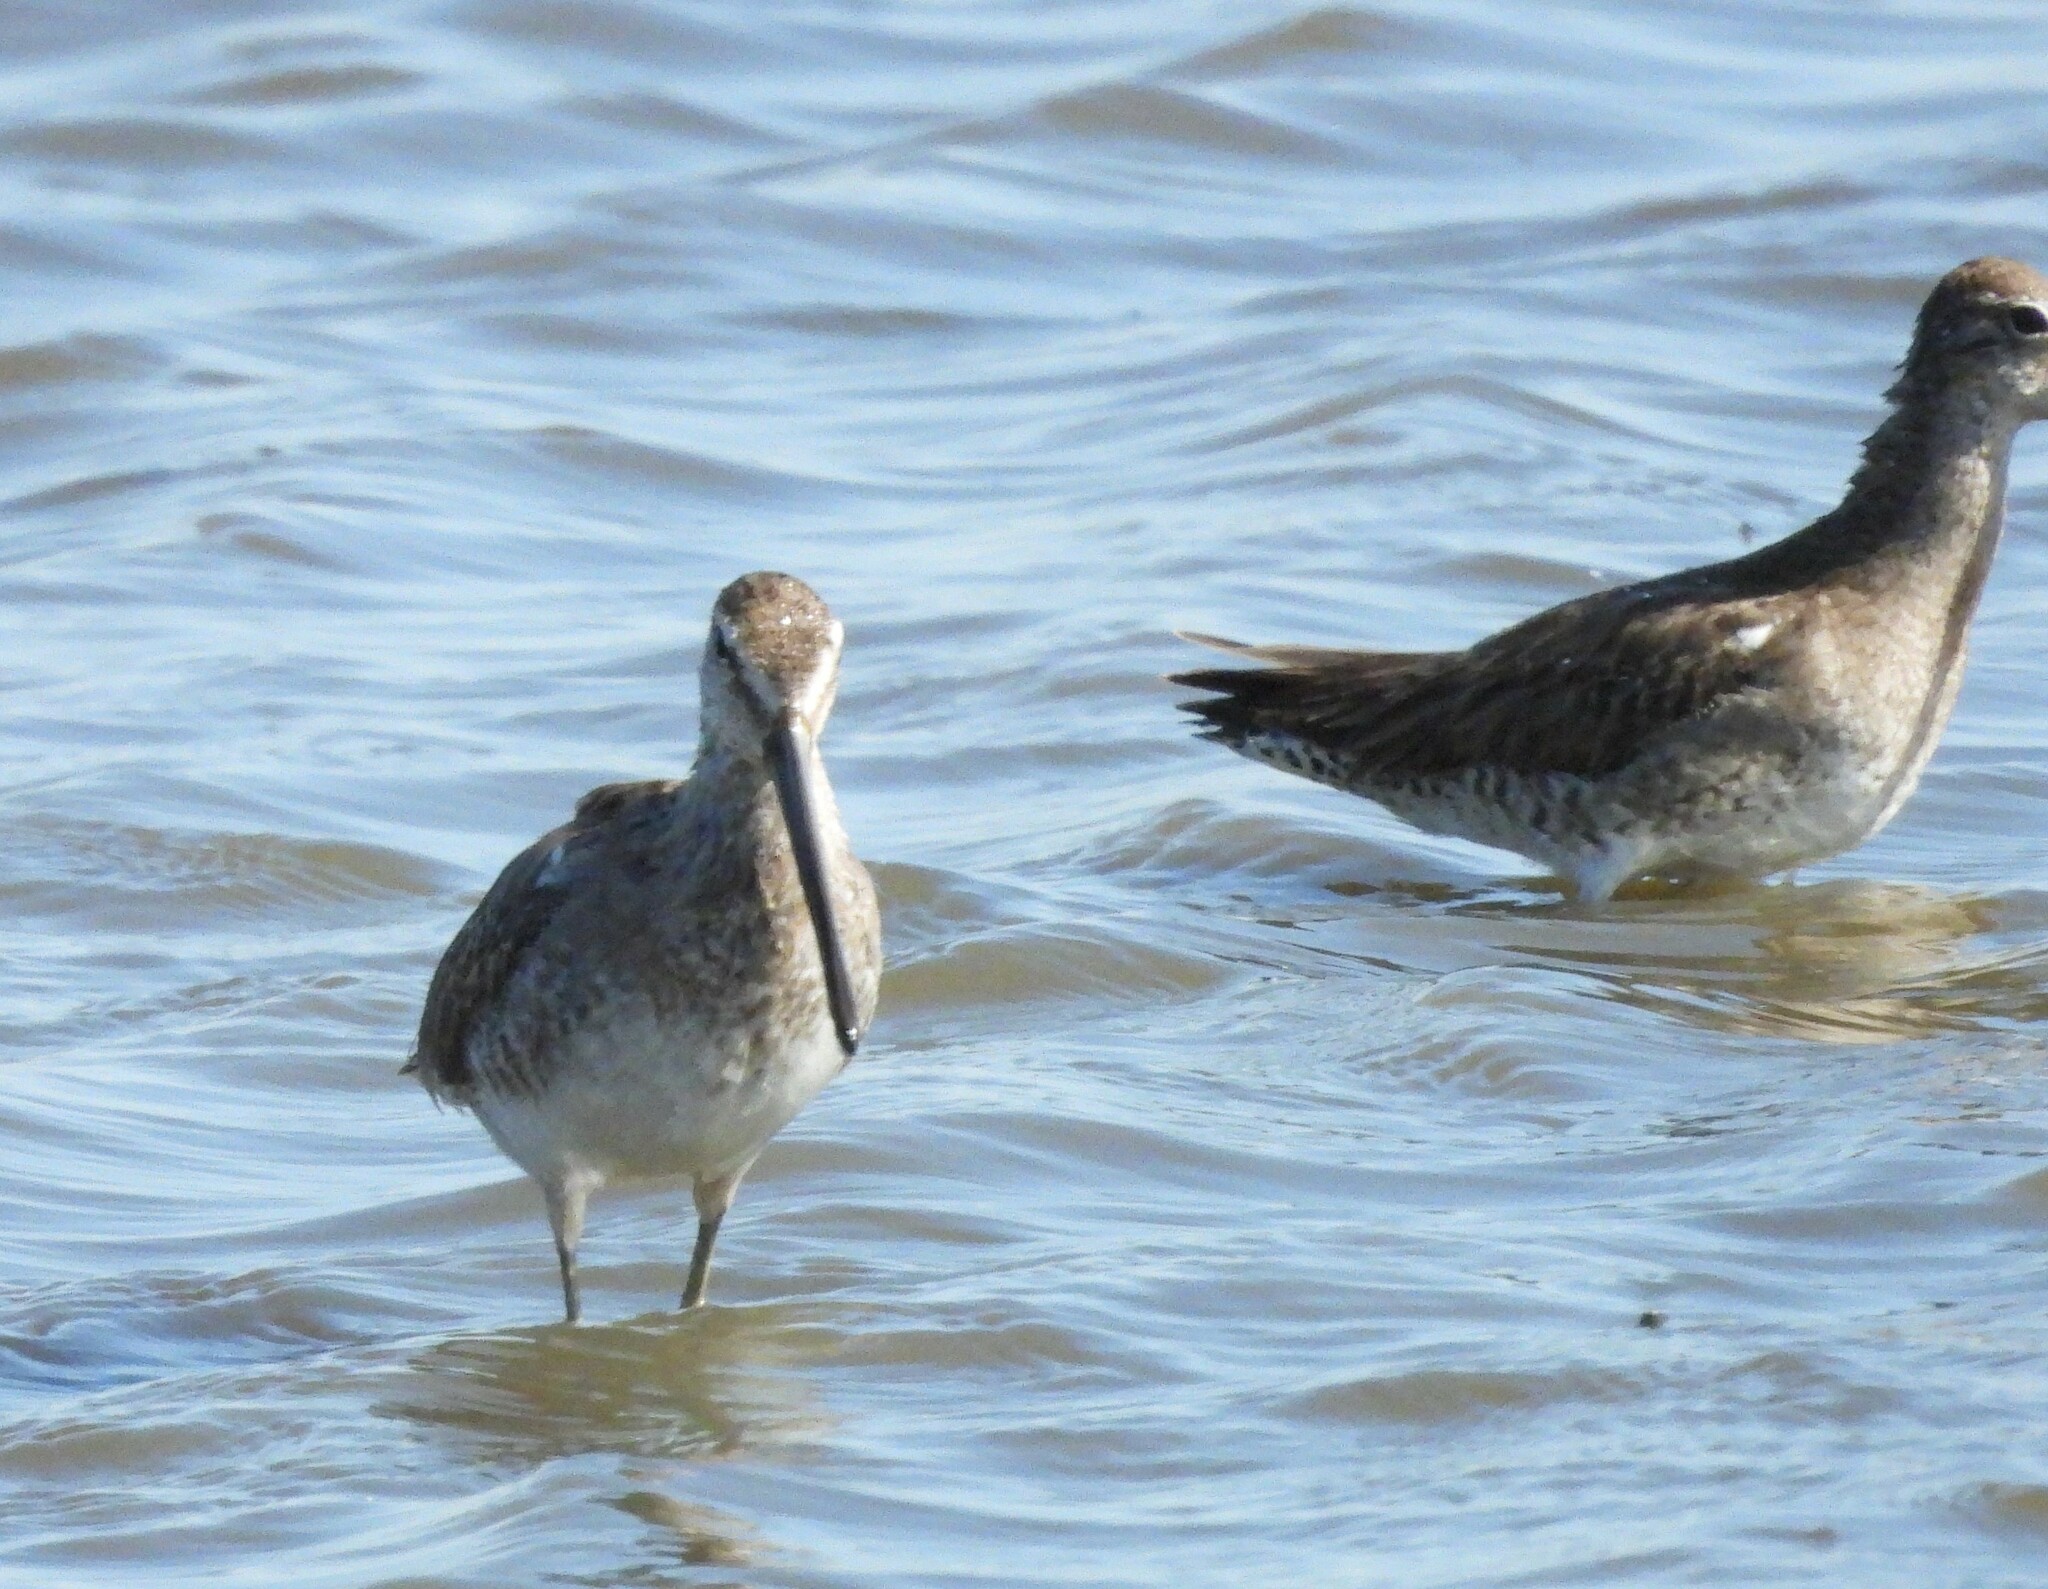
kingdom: Animalia
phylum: Chordata
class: Aves
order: Charadriiformes
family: Scolopacidae
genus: Limnodromus
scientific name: Limnodromus scolopaceus
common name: Long-billed dowitcher
